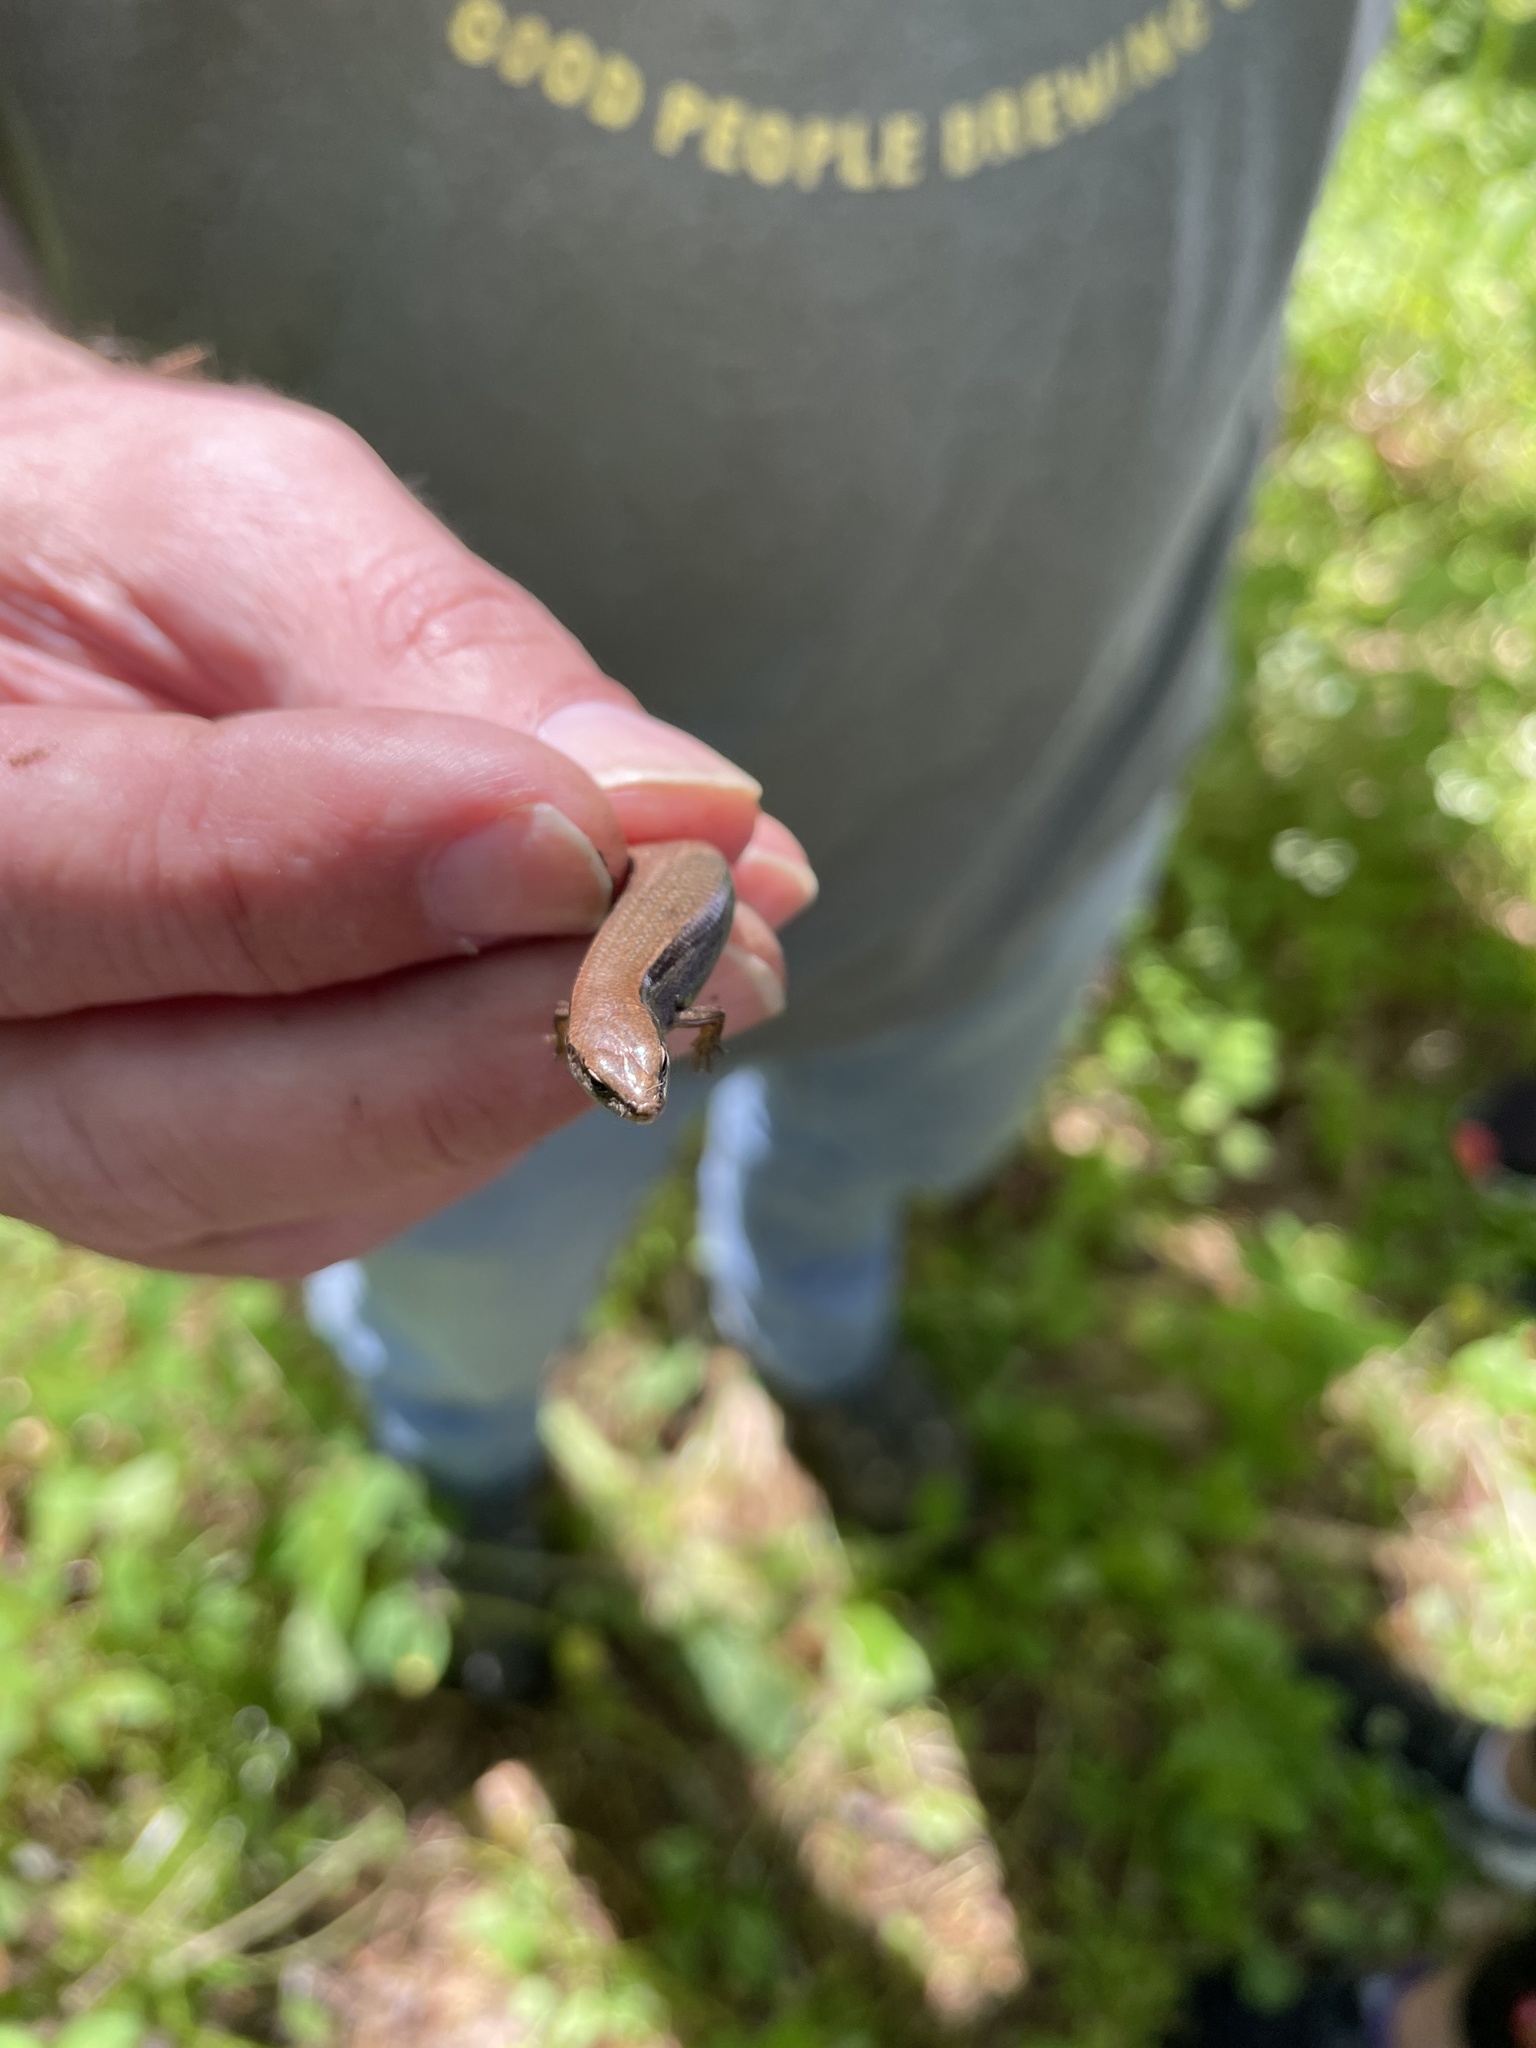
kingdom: Animalia
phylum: Chordata
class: Squamata
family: Scincidae
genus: Scincella
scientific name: Scincella lateralis
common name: Ground skink
